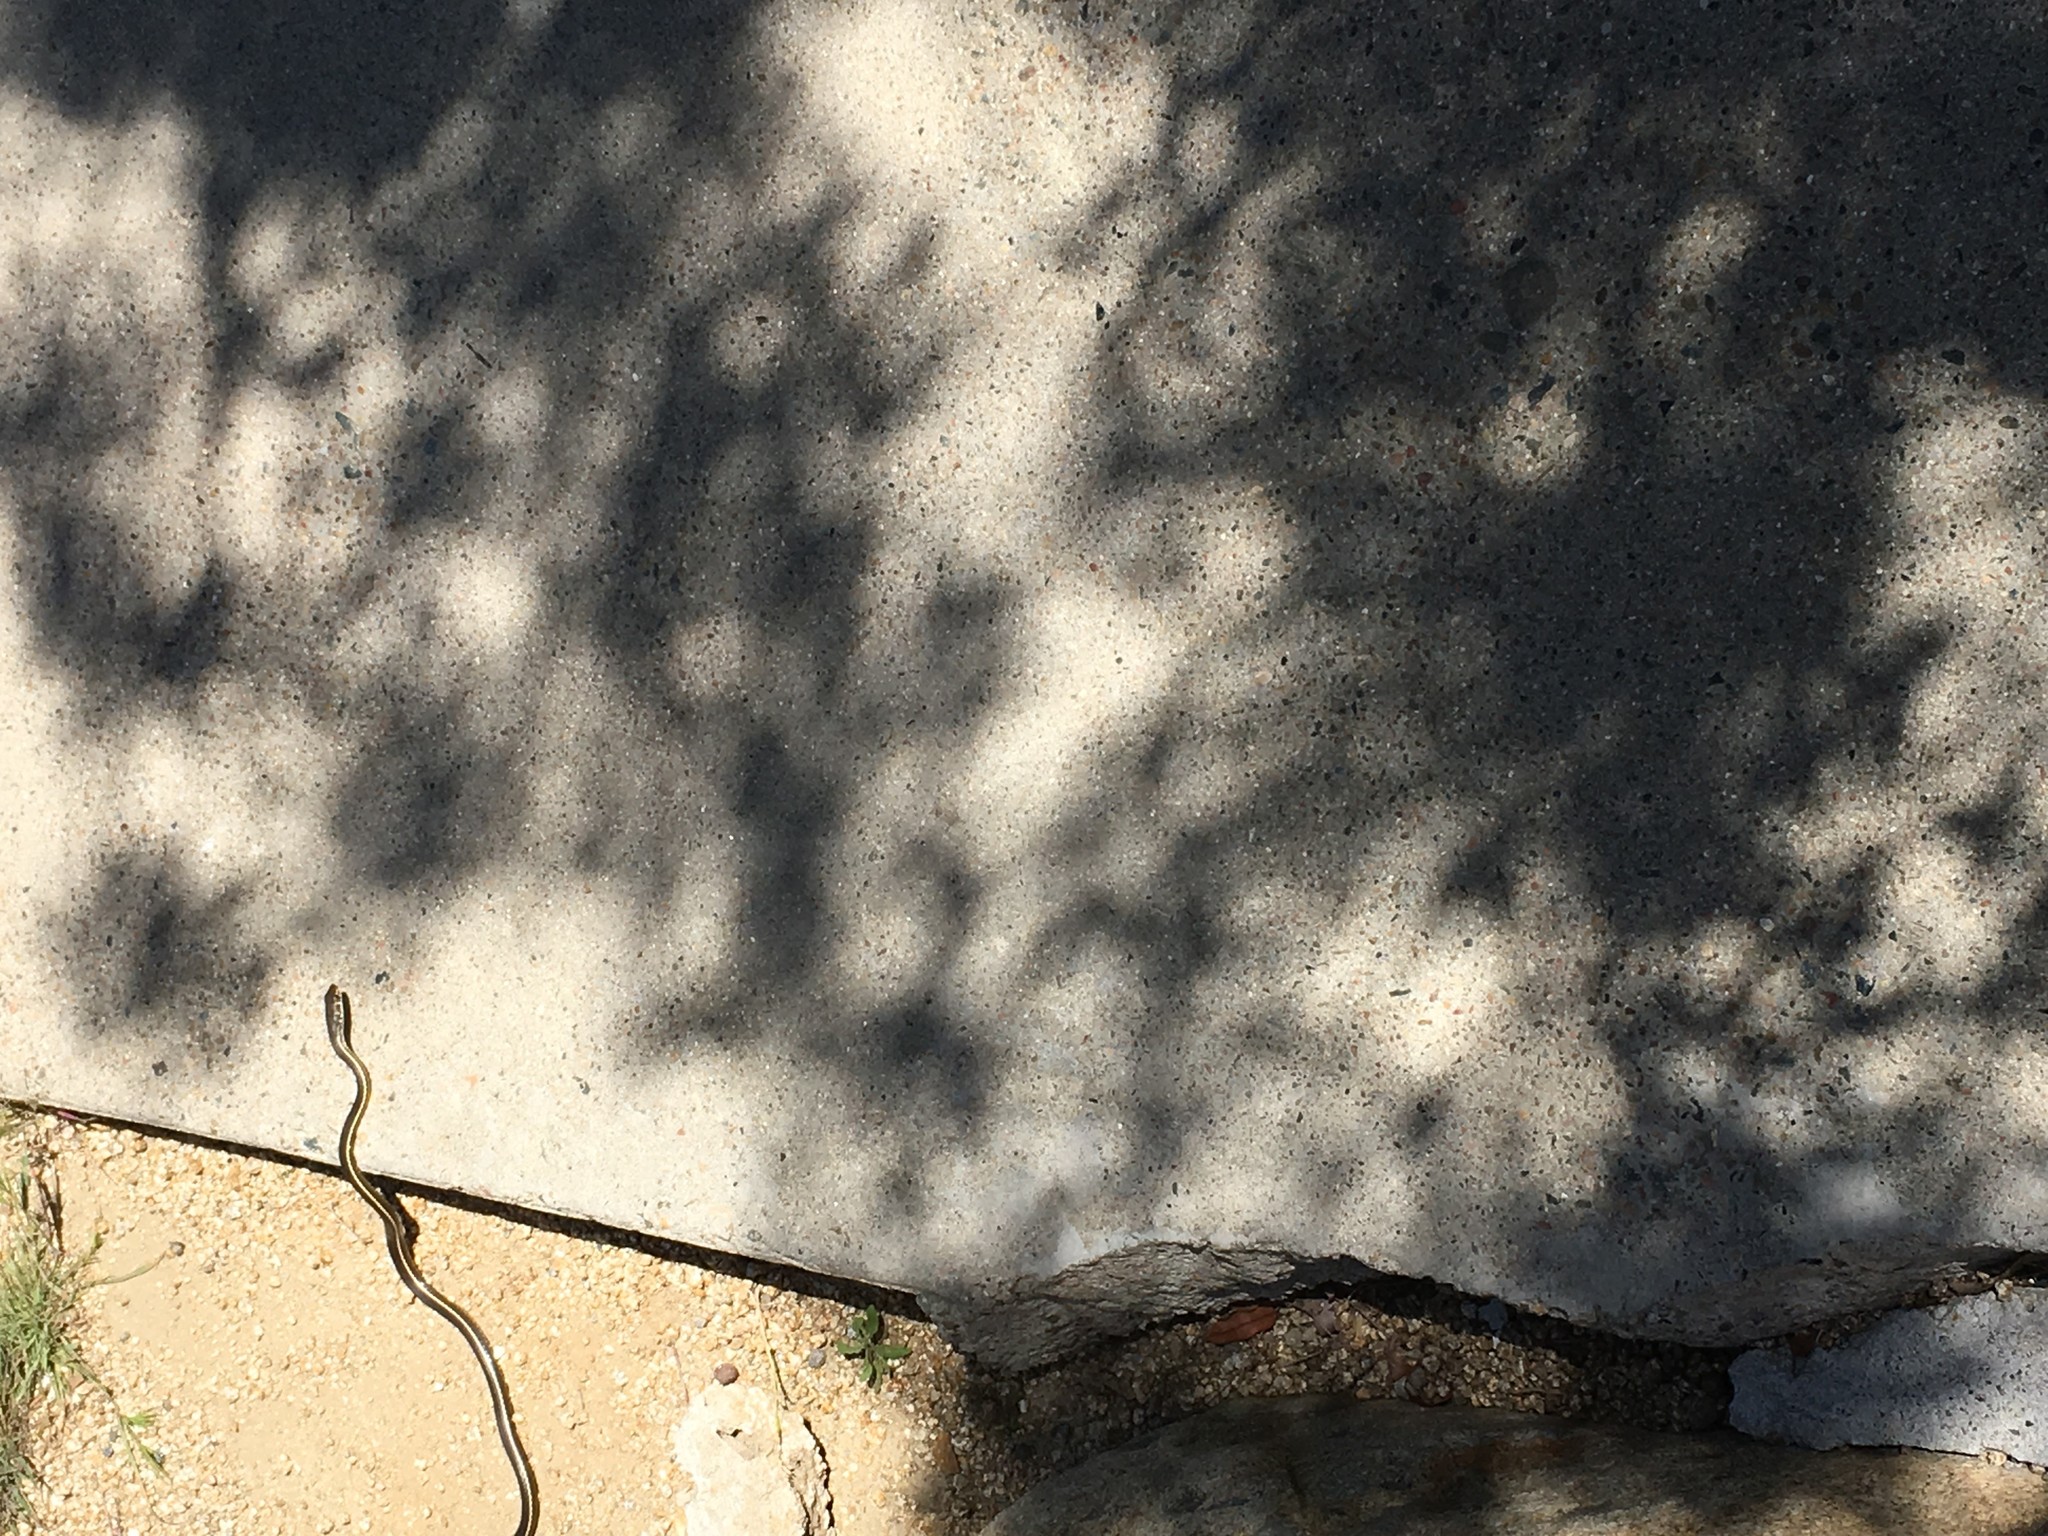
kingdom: Animalia
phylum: Chordata
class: Squamata
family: Colubridae
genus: Masticophis
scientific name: Masticophis lateralis
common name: Striped racer
